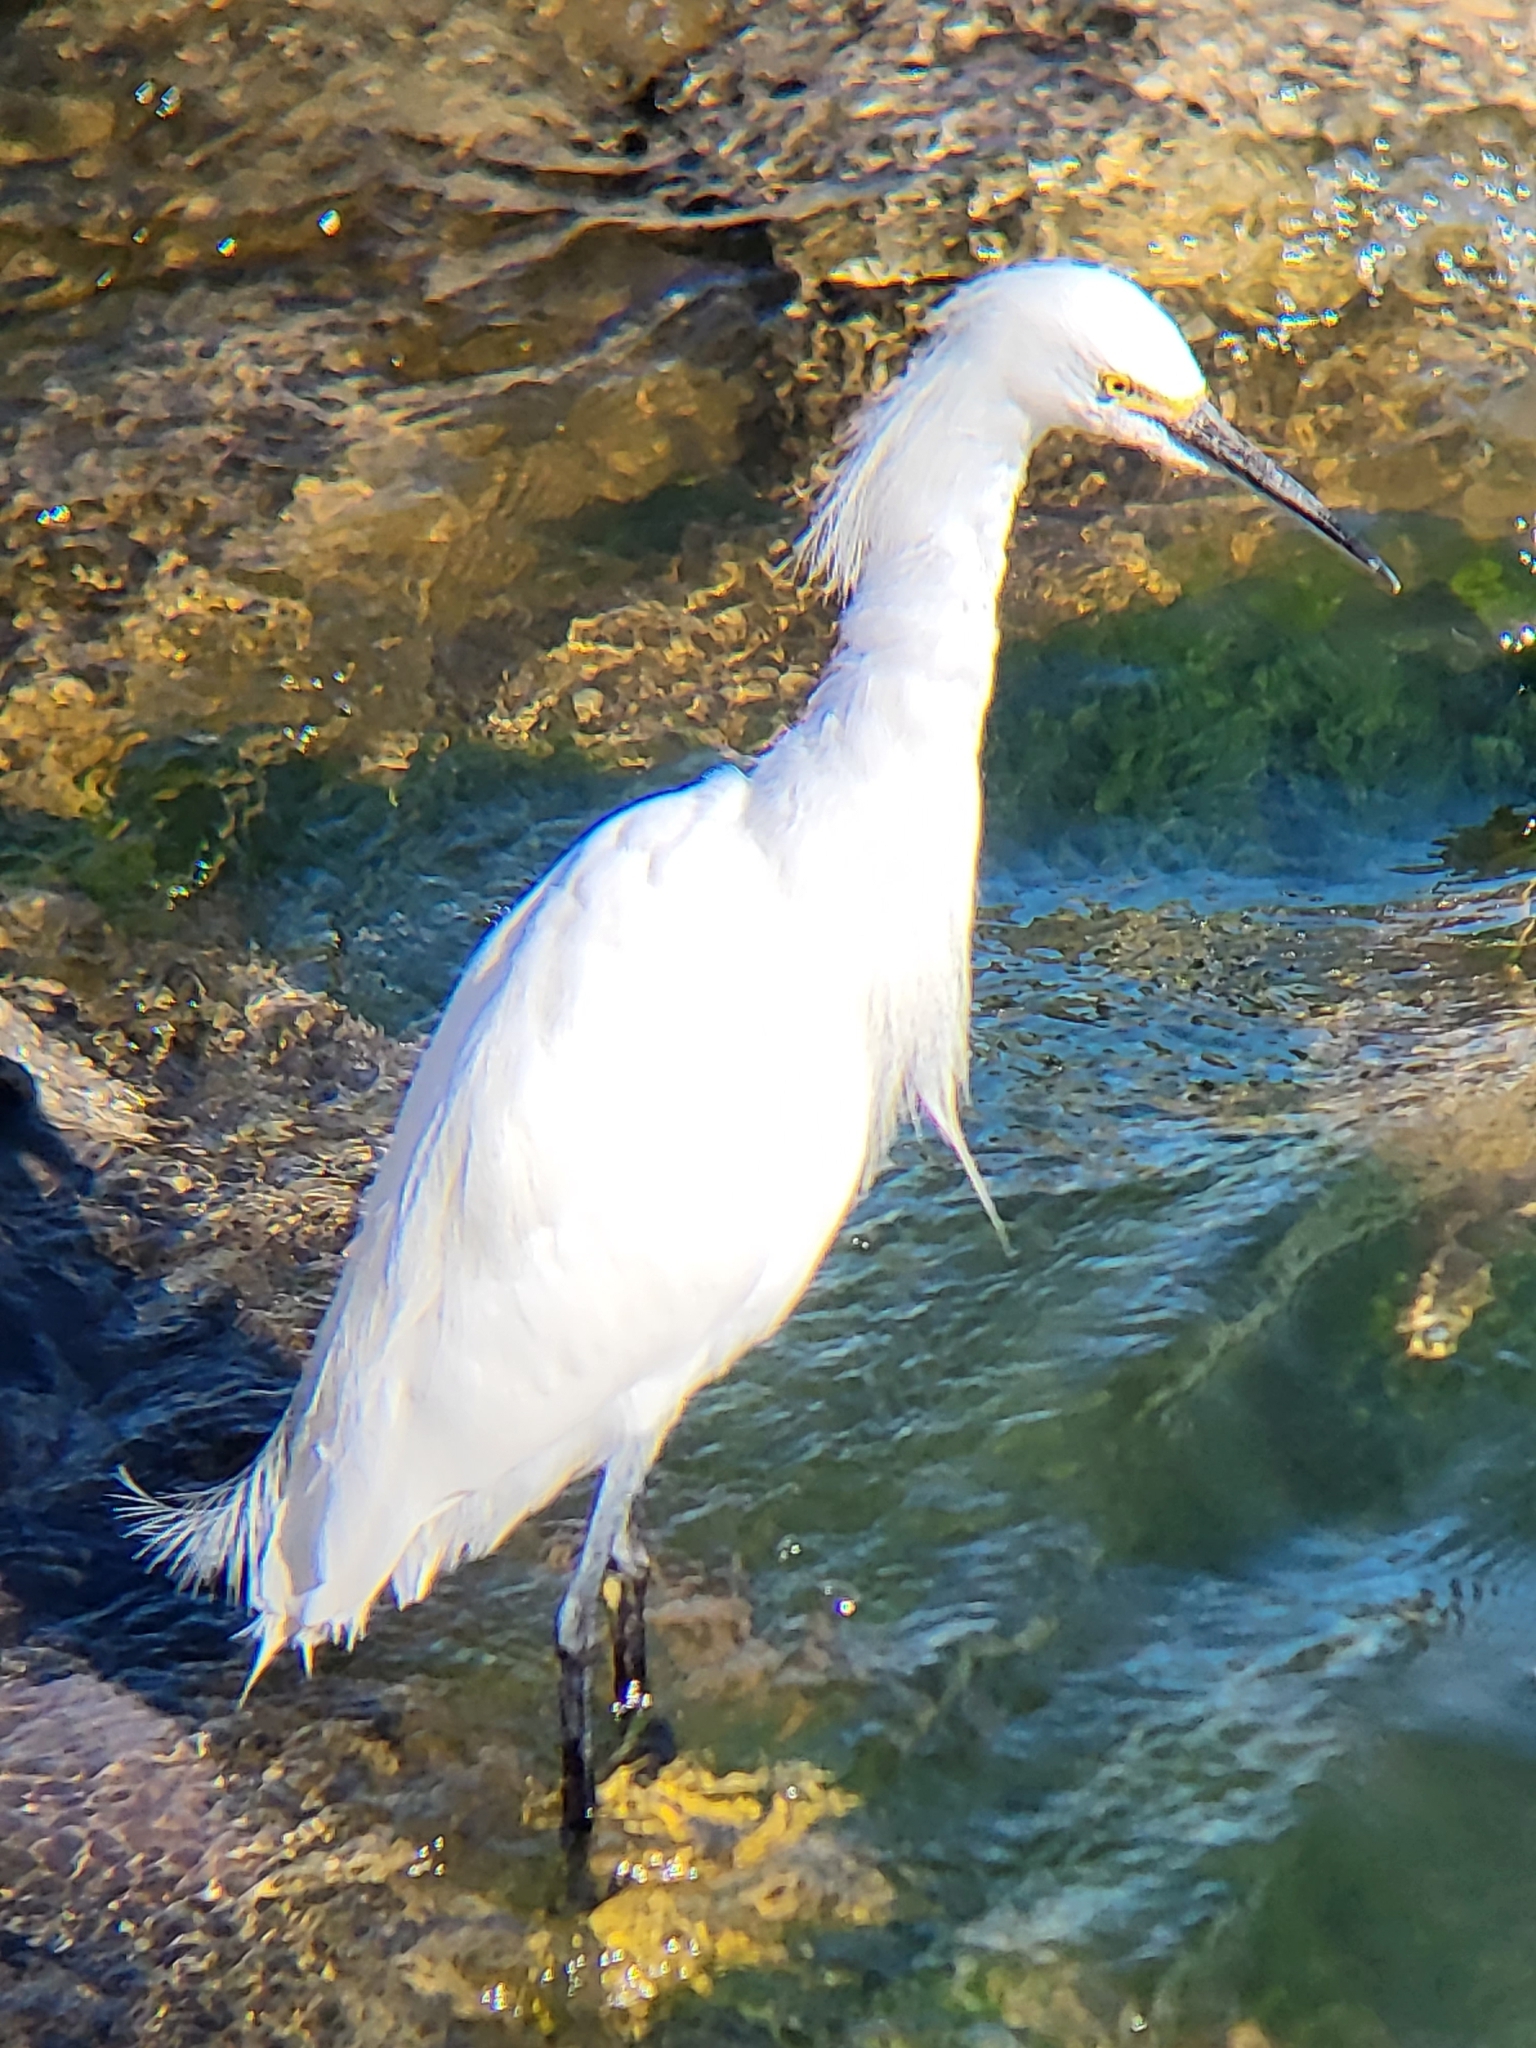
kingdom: Animalia
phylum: Chordata
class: Aves
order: Pelecaniformes
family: Ardeidae
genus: Egretta
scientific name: Egretta thula
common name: Snowy egret
